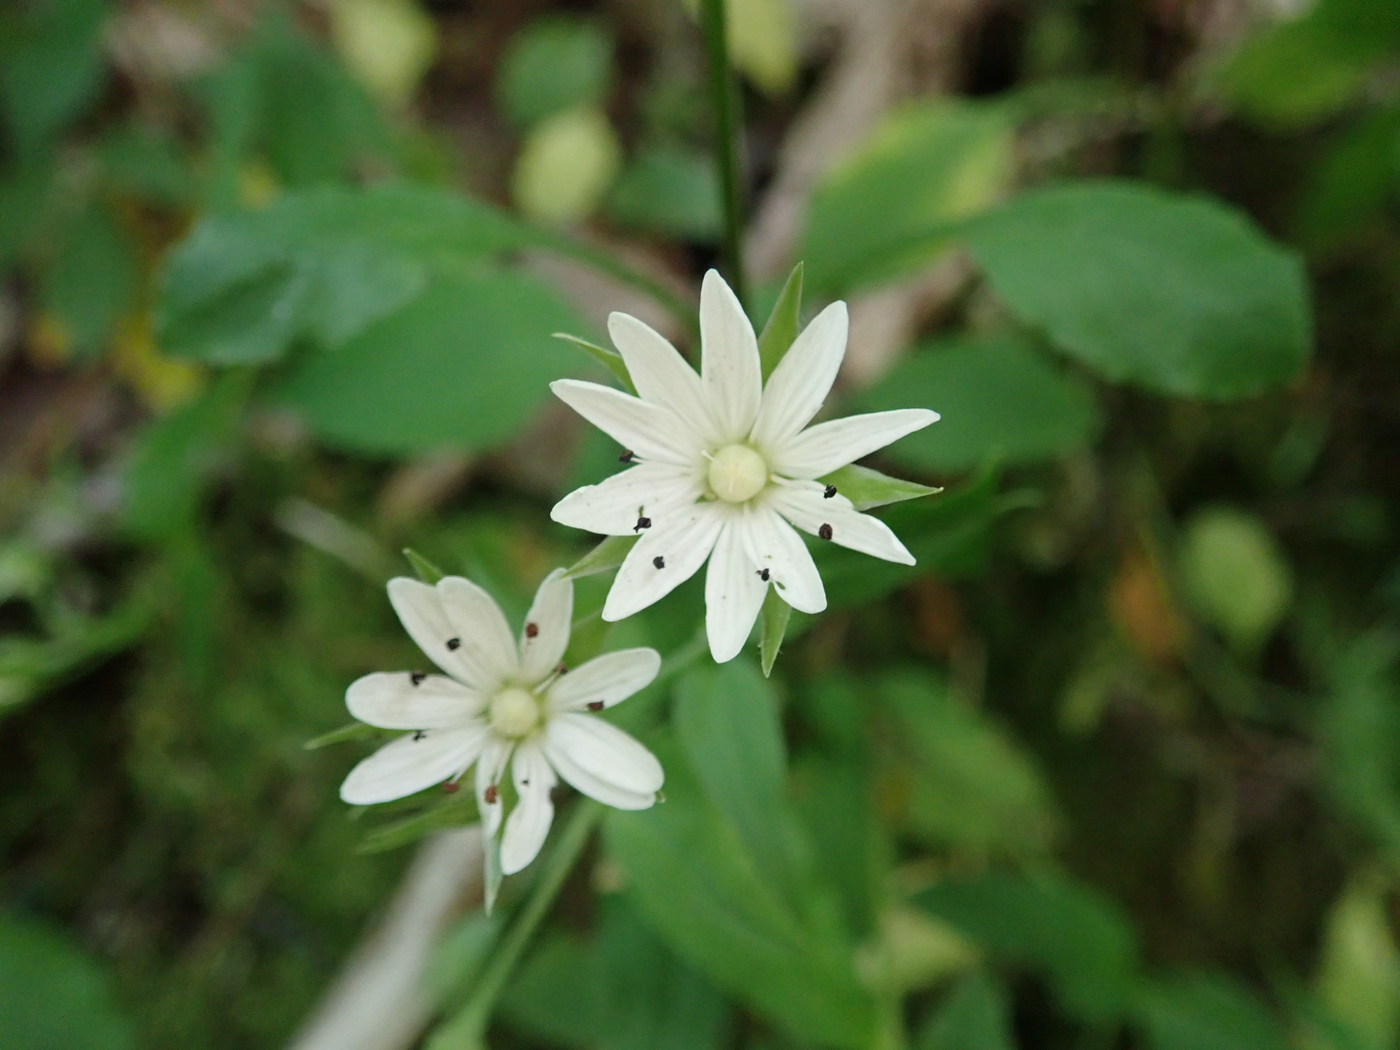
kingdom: Plantae
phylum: Tracheophyta
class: Magnoliopsida
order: Caryophyllales
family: Caryophyllaceae
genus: Stellaria
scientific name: Stellaria corei
